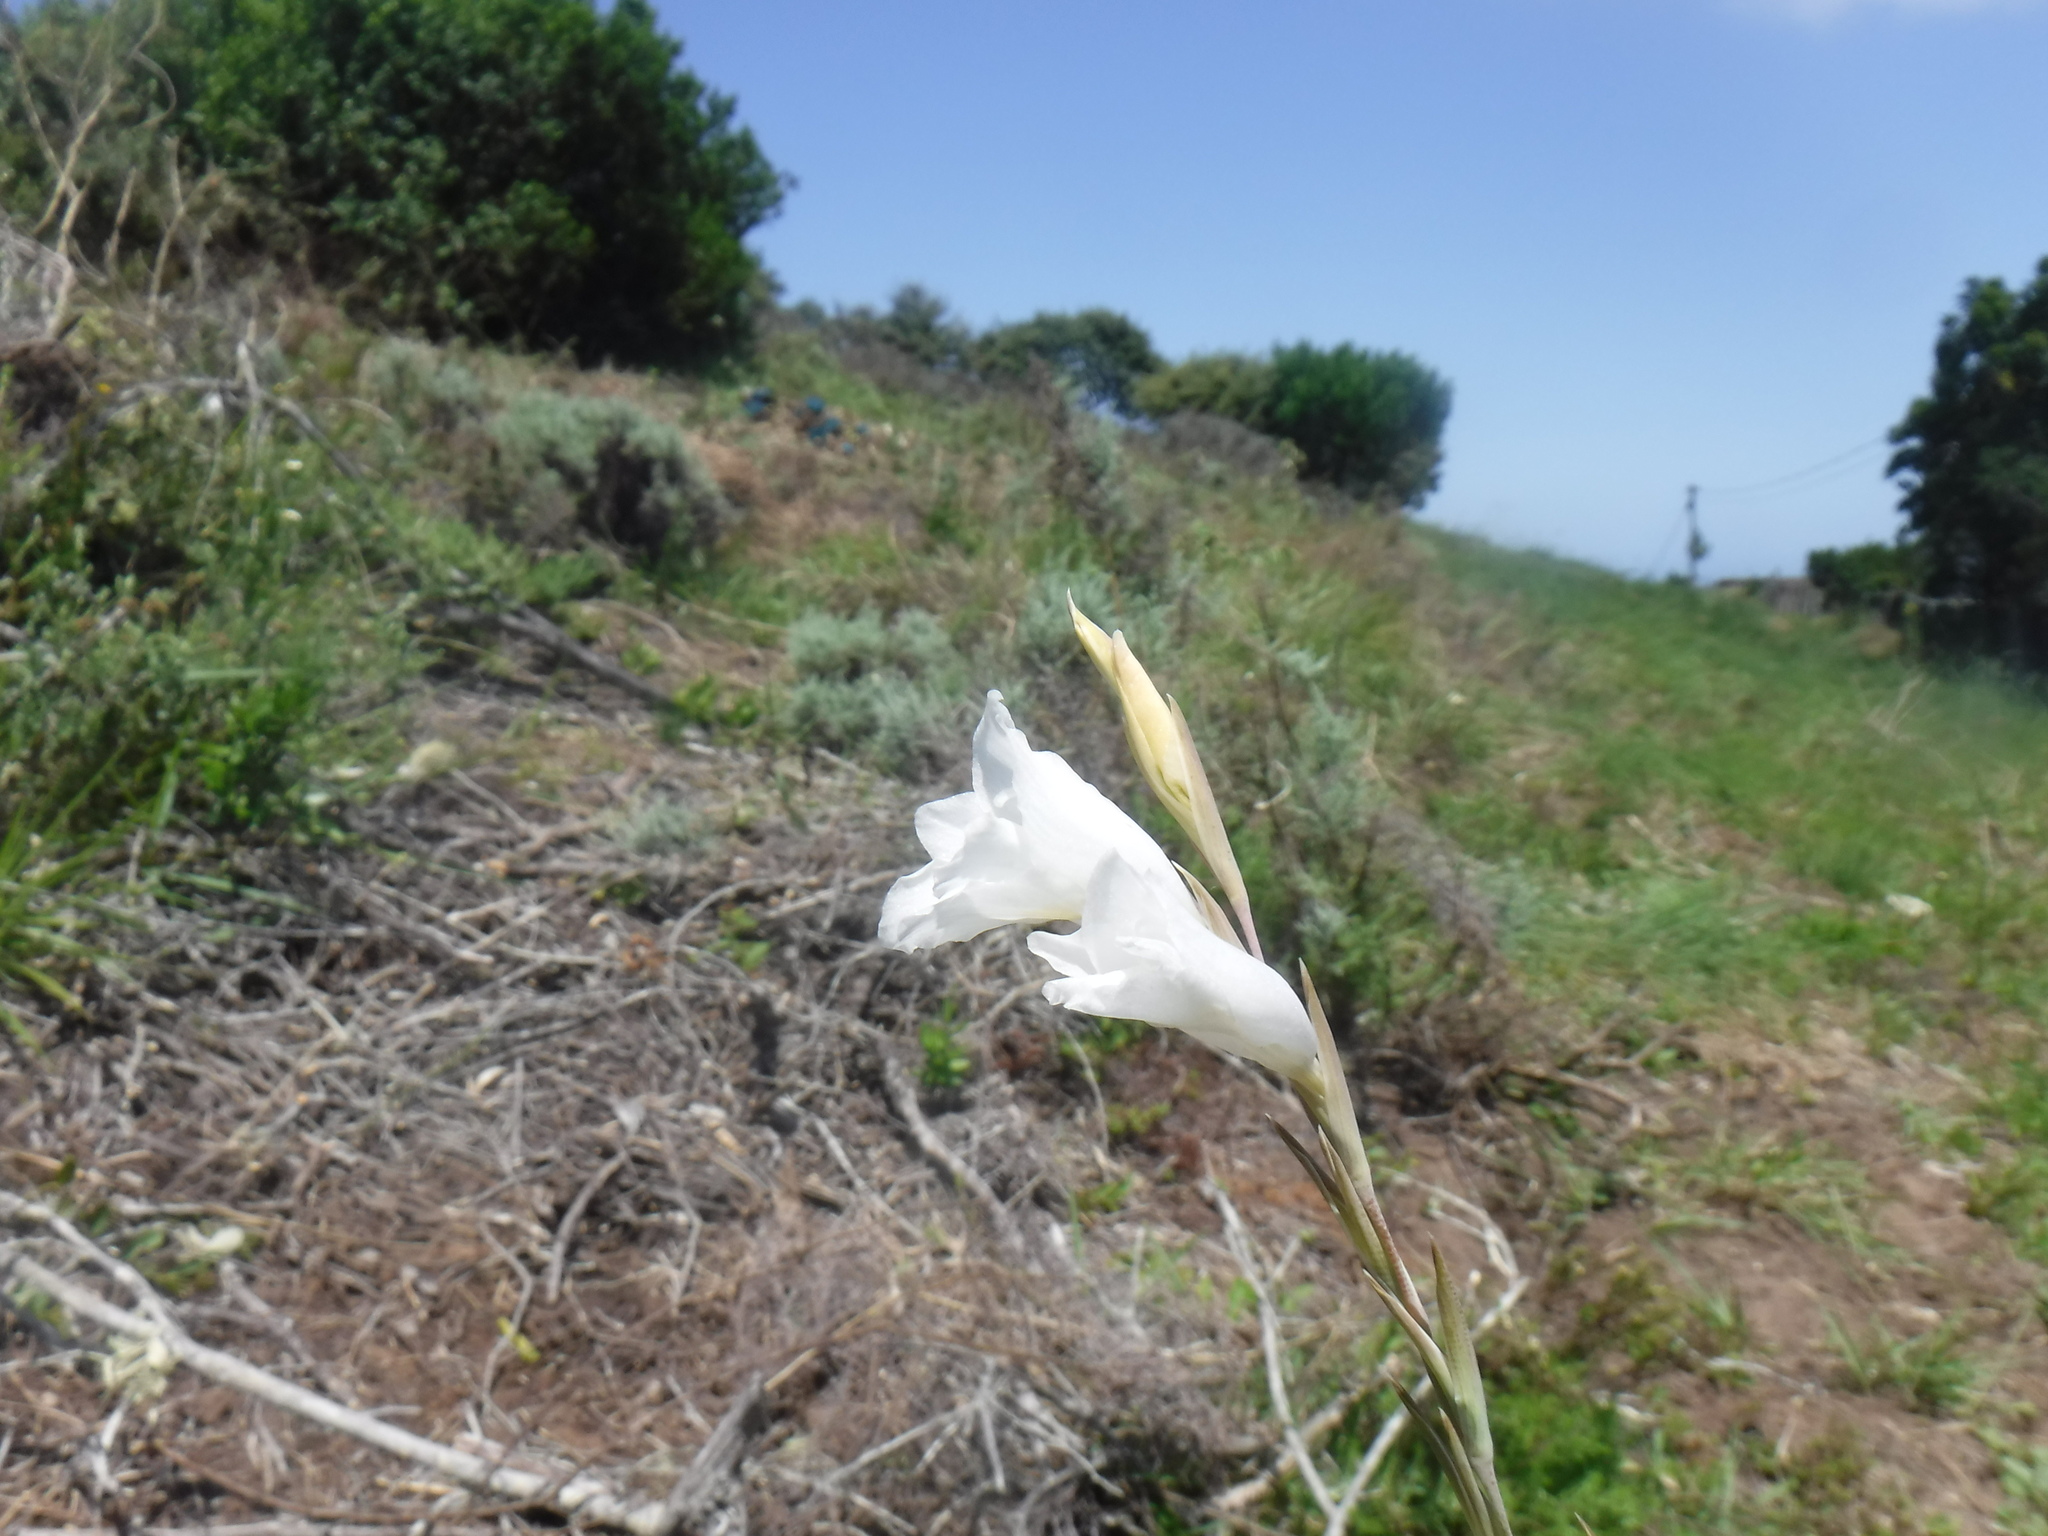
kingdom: Plantae
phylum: Tracheophyta
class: Liliopsida
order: Asparagales
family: Iridaceae
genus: Gladiolus
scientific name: Gladiolus vaginatus
